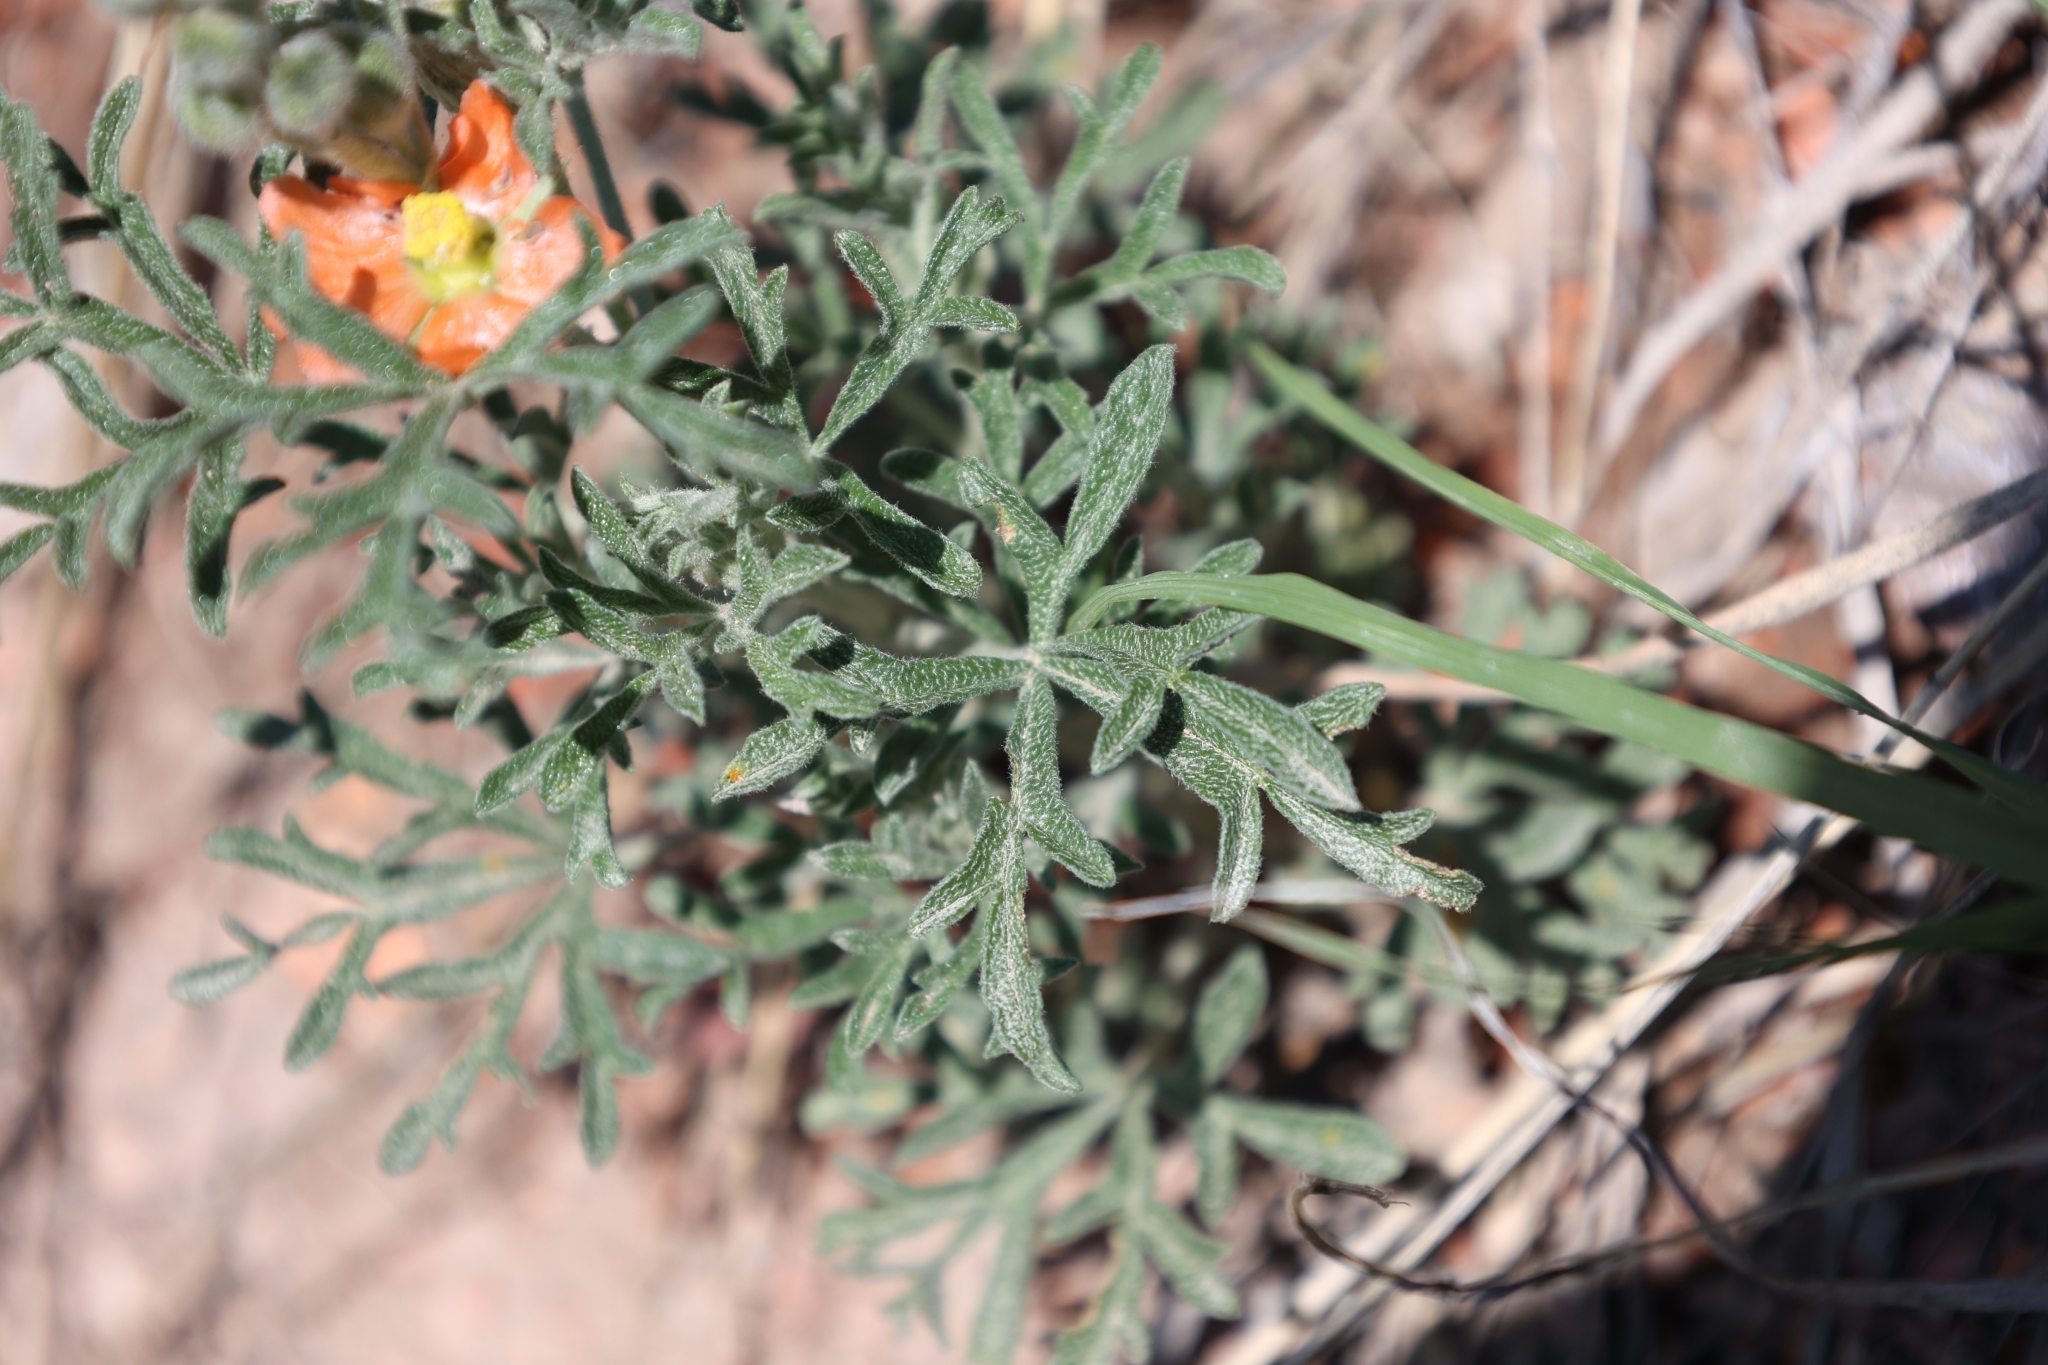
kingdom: Plantae
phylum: Tracheophyta
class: Magnoliopsida
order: Malvales
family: Malvaceae
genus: Sphaeralcea
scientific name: Sphaeralcea coccinea
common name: Moss-rose
